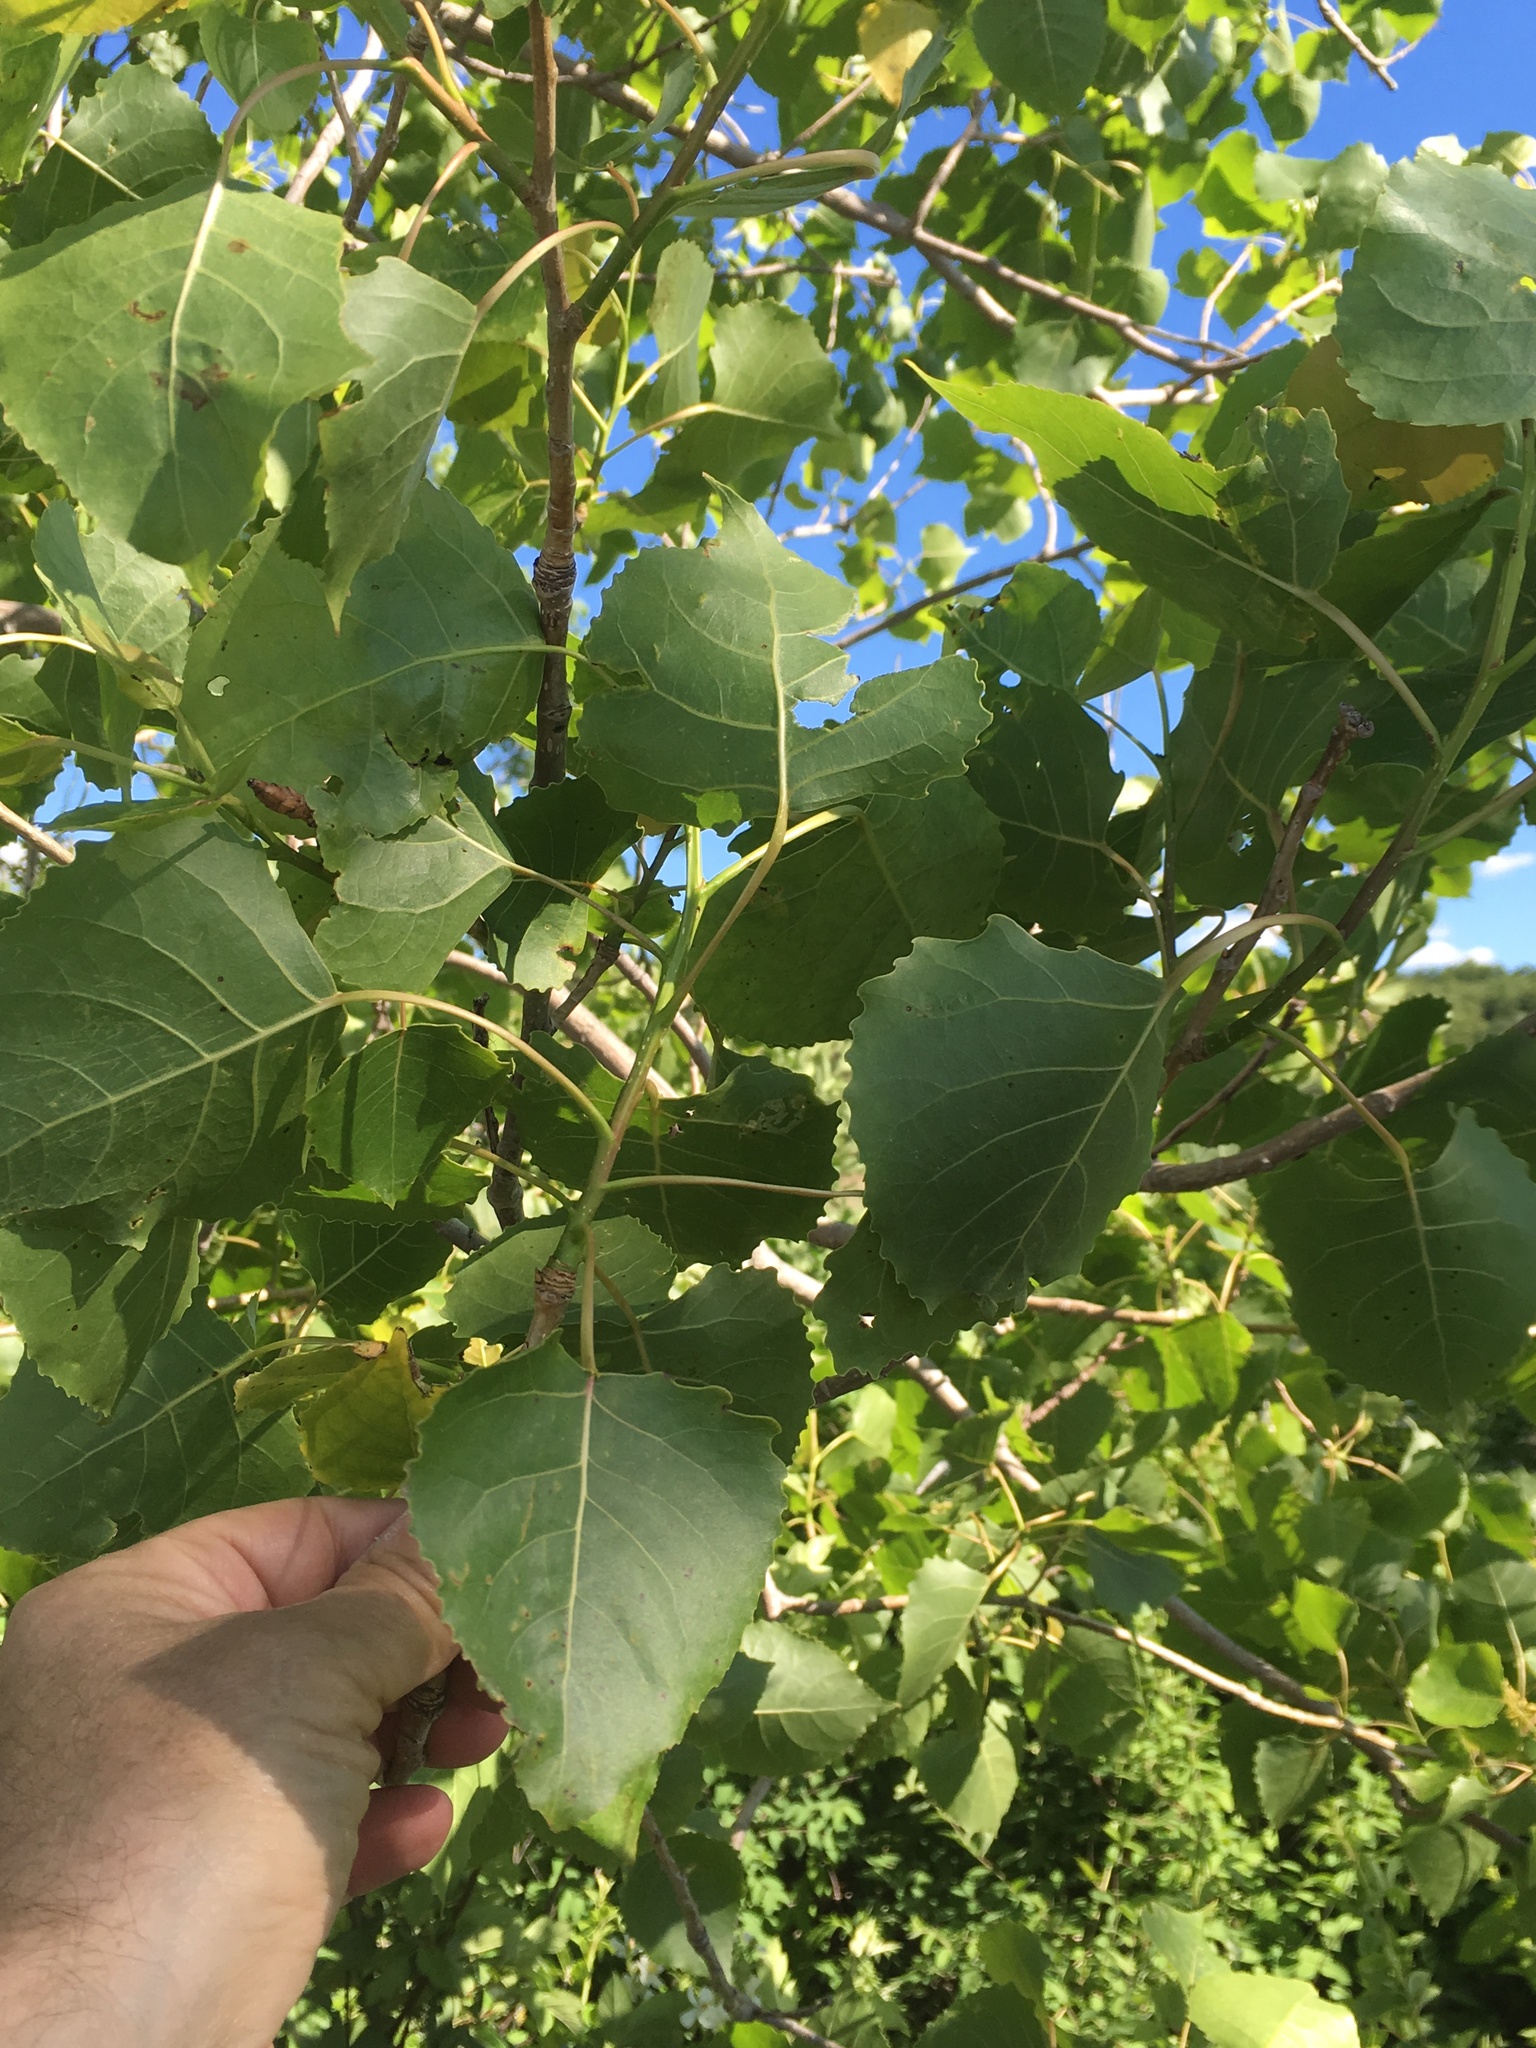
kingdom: Plantae
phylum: Tracheophyta
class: Magnoliopsida
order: Malpighiales
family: Salicaceae
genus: Populus
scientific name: Populus deltoides
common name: Eastern cottonwood
